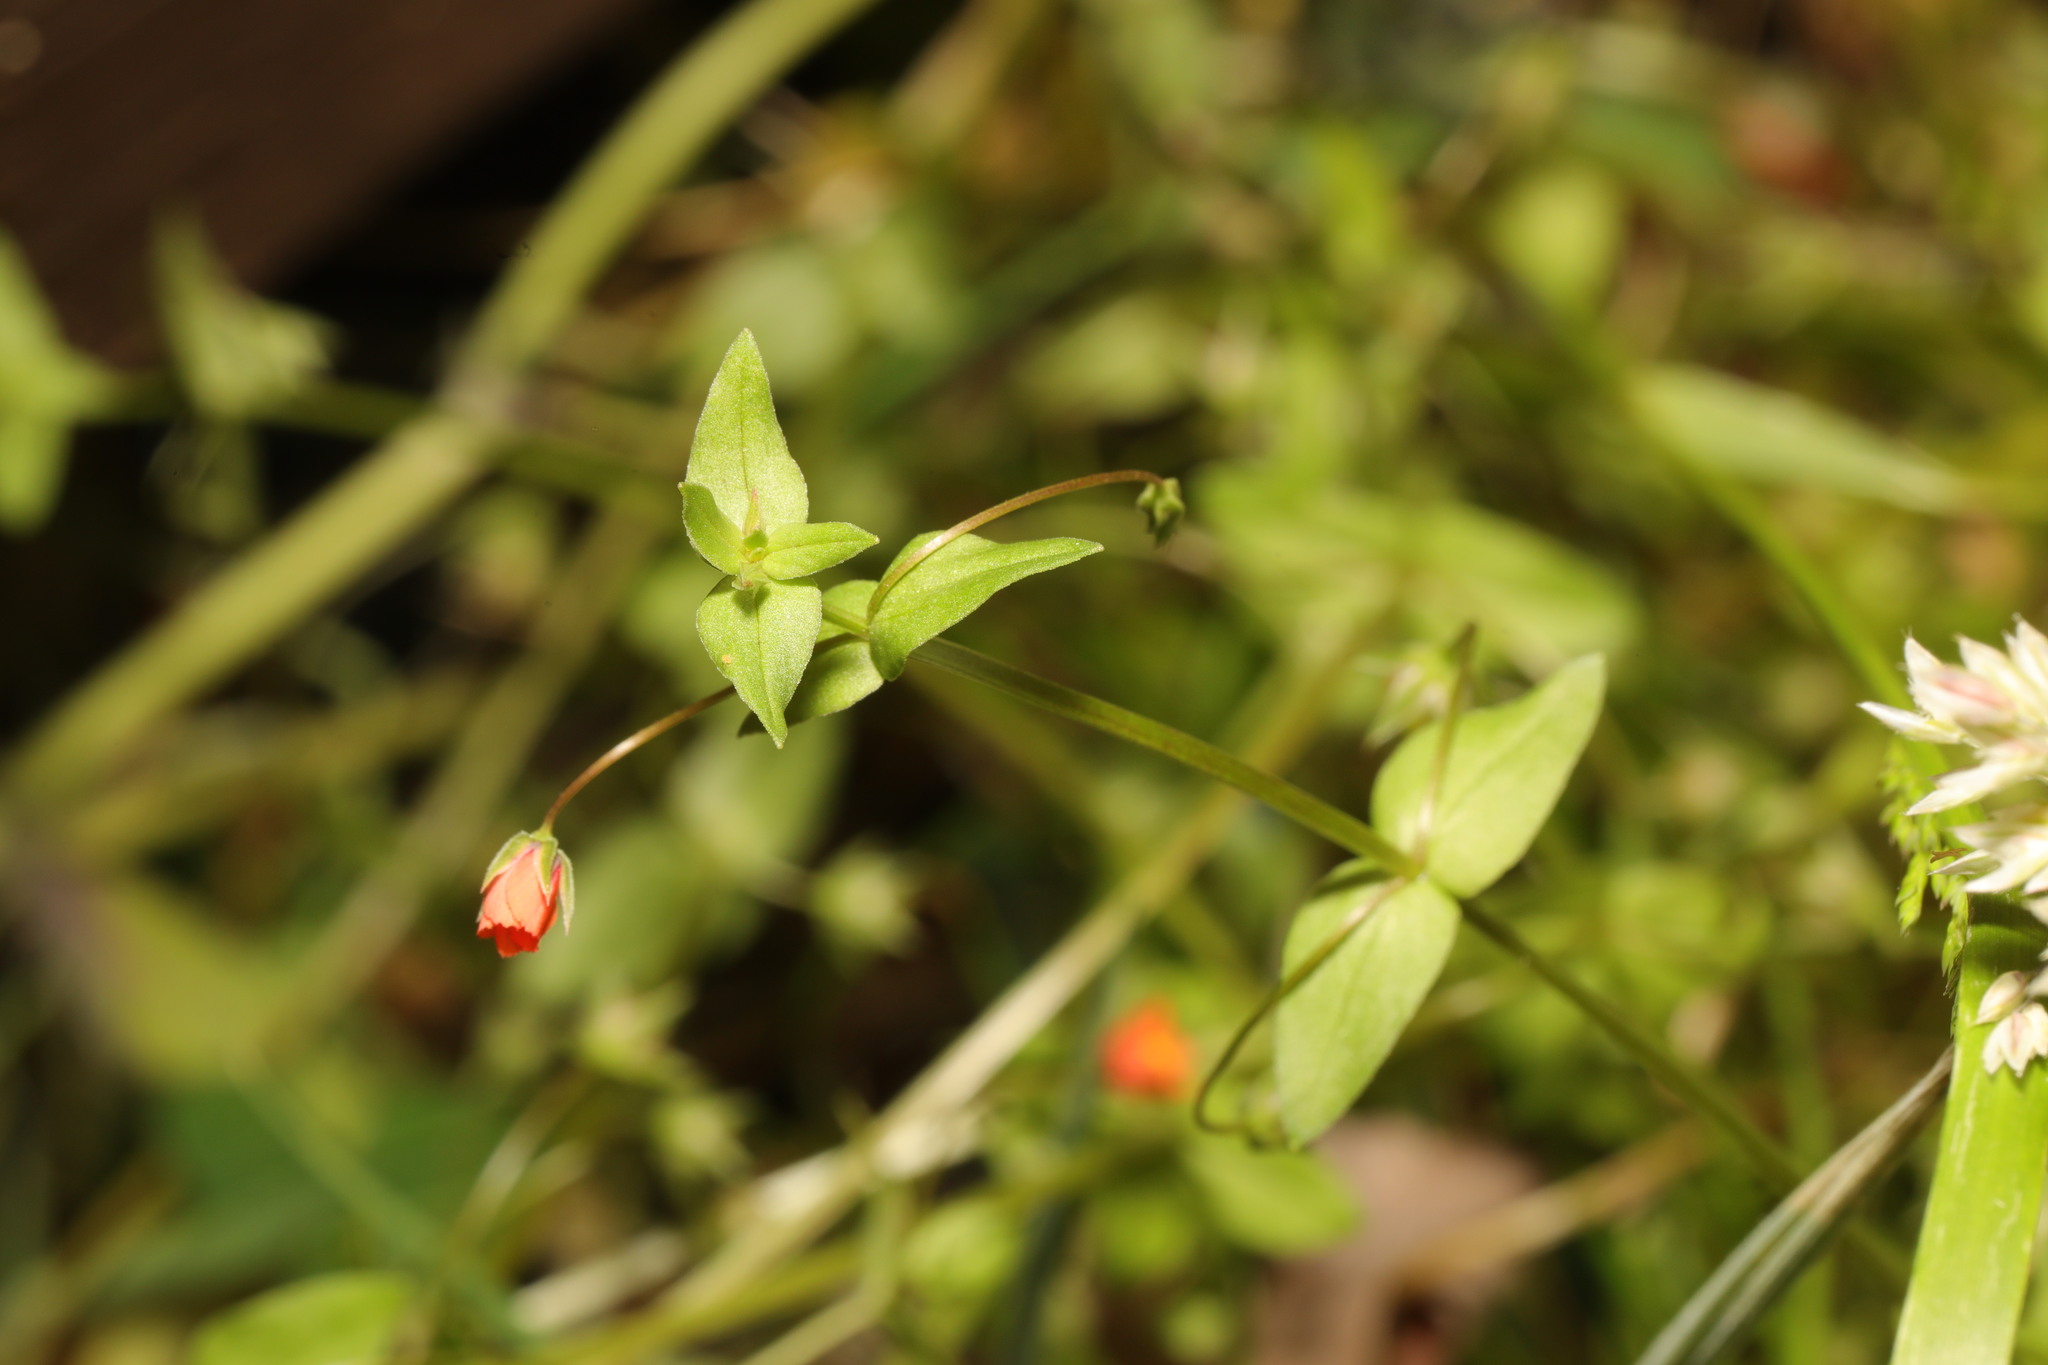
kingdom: Plantae
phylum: Tracheophyta
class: Magnoliopsida
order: Ericales
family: Primulaceae
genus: Lysimachia
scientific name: Lysimachia arvensis
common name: Scarlet pimpernel
